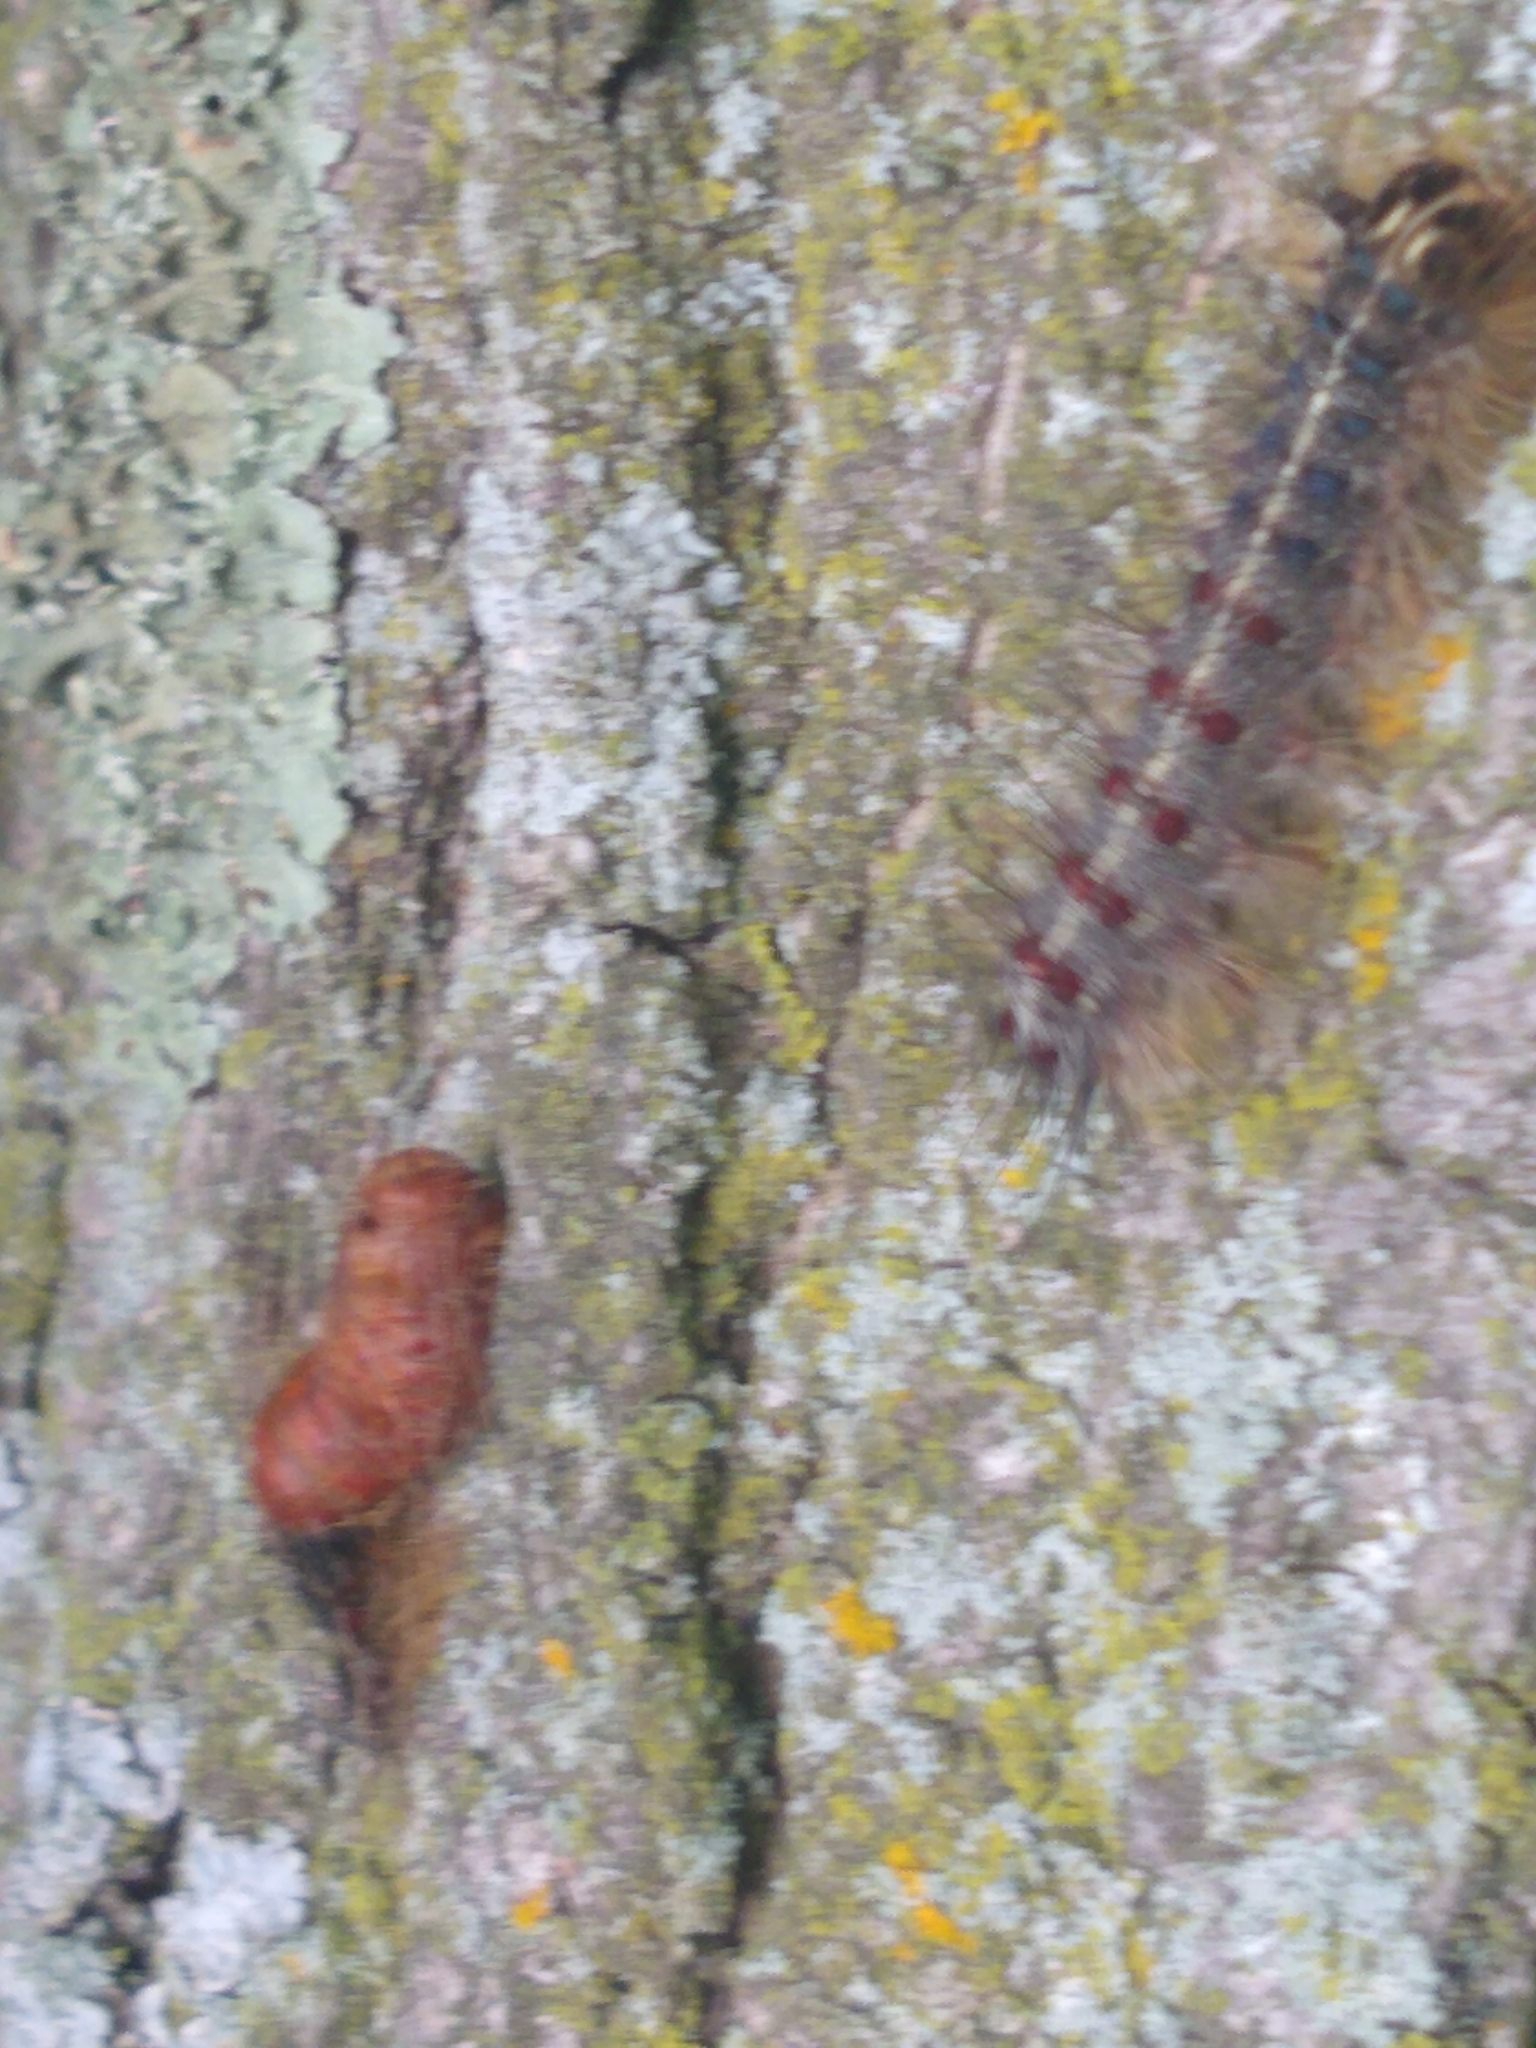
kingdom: Animalia
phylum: Arthropoda
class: Insecta
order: Lepidoptera
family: Erebidae
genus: Lymantria
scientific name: Lymantria dispar
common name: Gypsy moth
